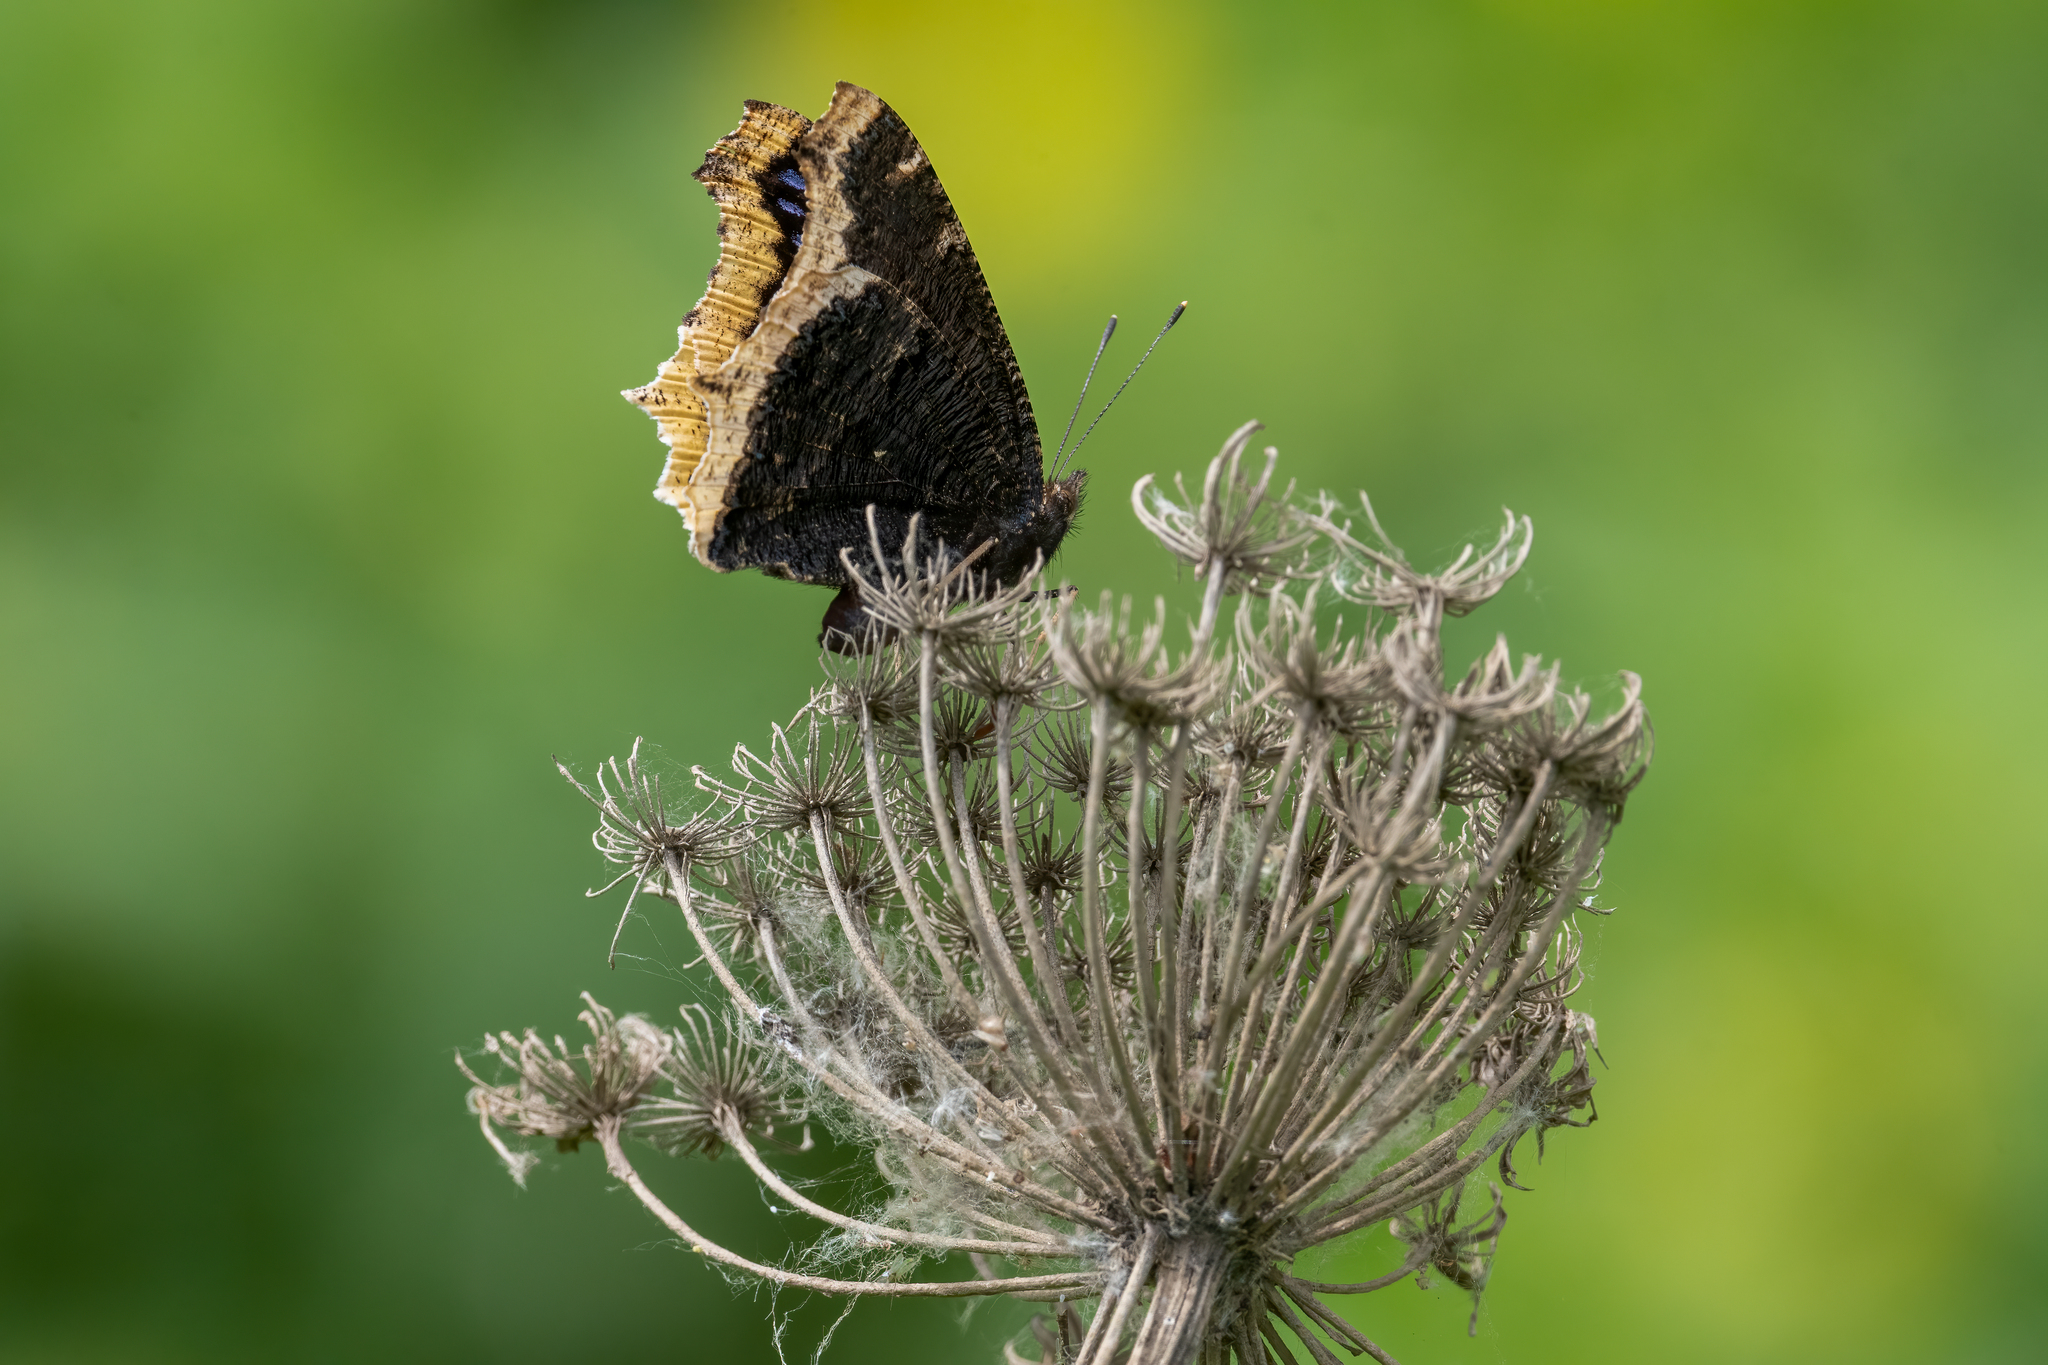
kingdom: Animalia
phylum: Arthropoda
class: Insecta
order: Lepidoptera
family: Nymphalidae
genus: Nymphalis
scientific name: Nymphalis antiopa
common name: Camberwell beauty
